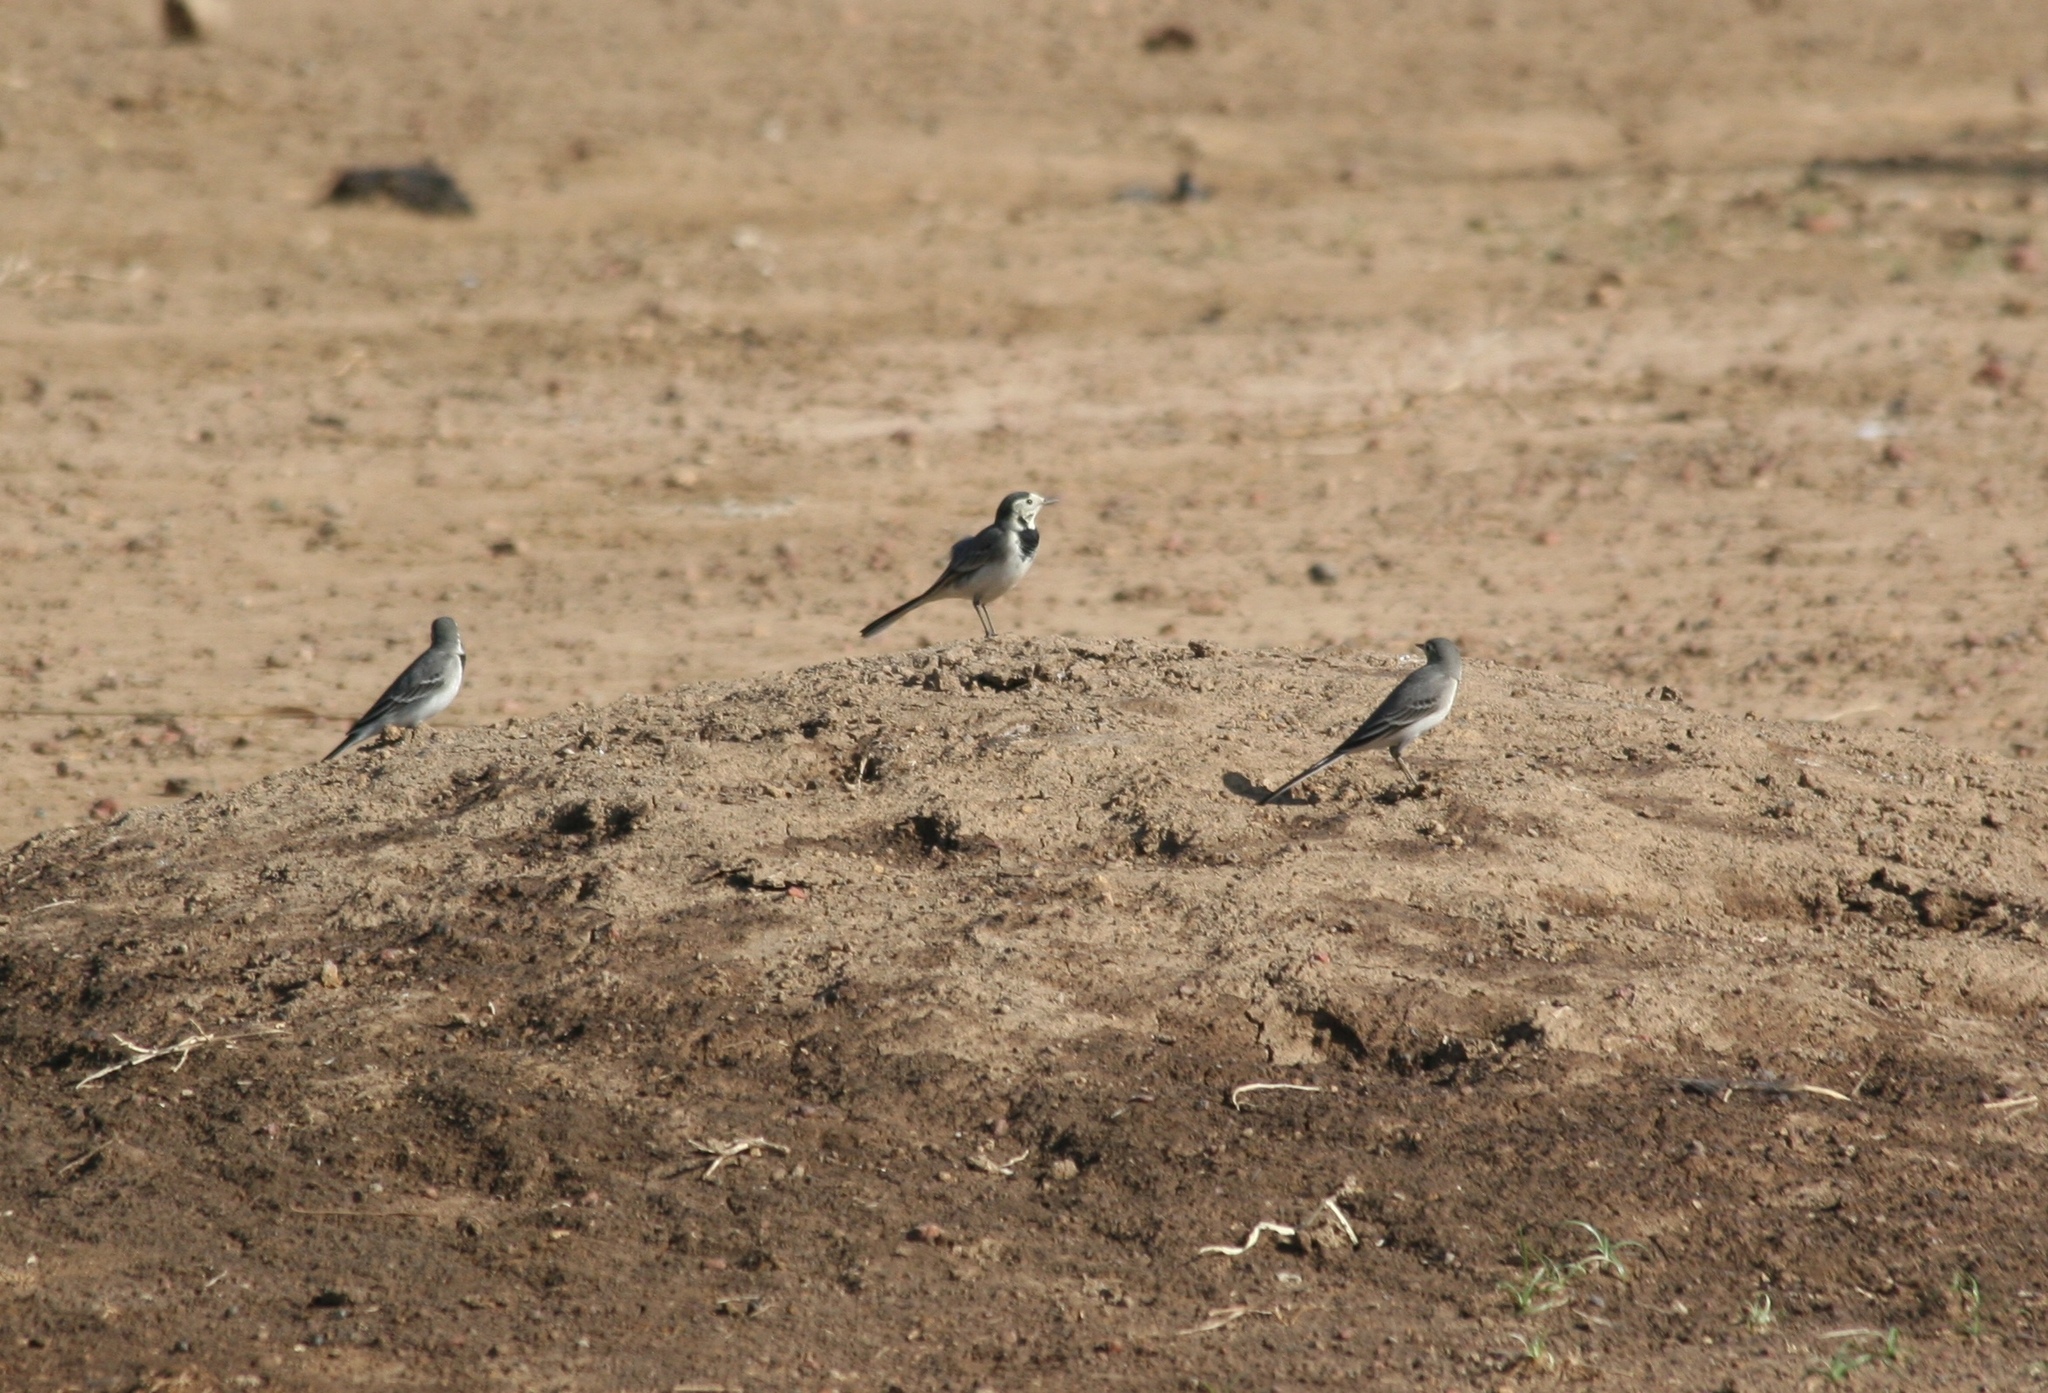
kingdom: Animalia
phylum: Chordata
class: Aves
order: Passeriformes
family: Motacillidae
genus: Motacilla
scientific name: Motacilla alba
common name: White wagtail
